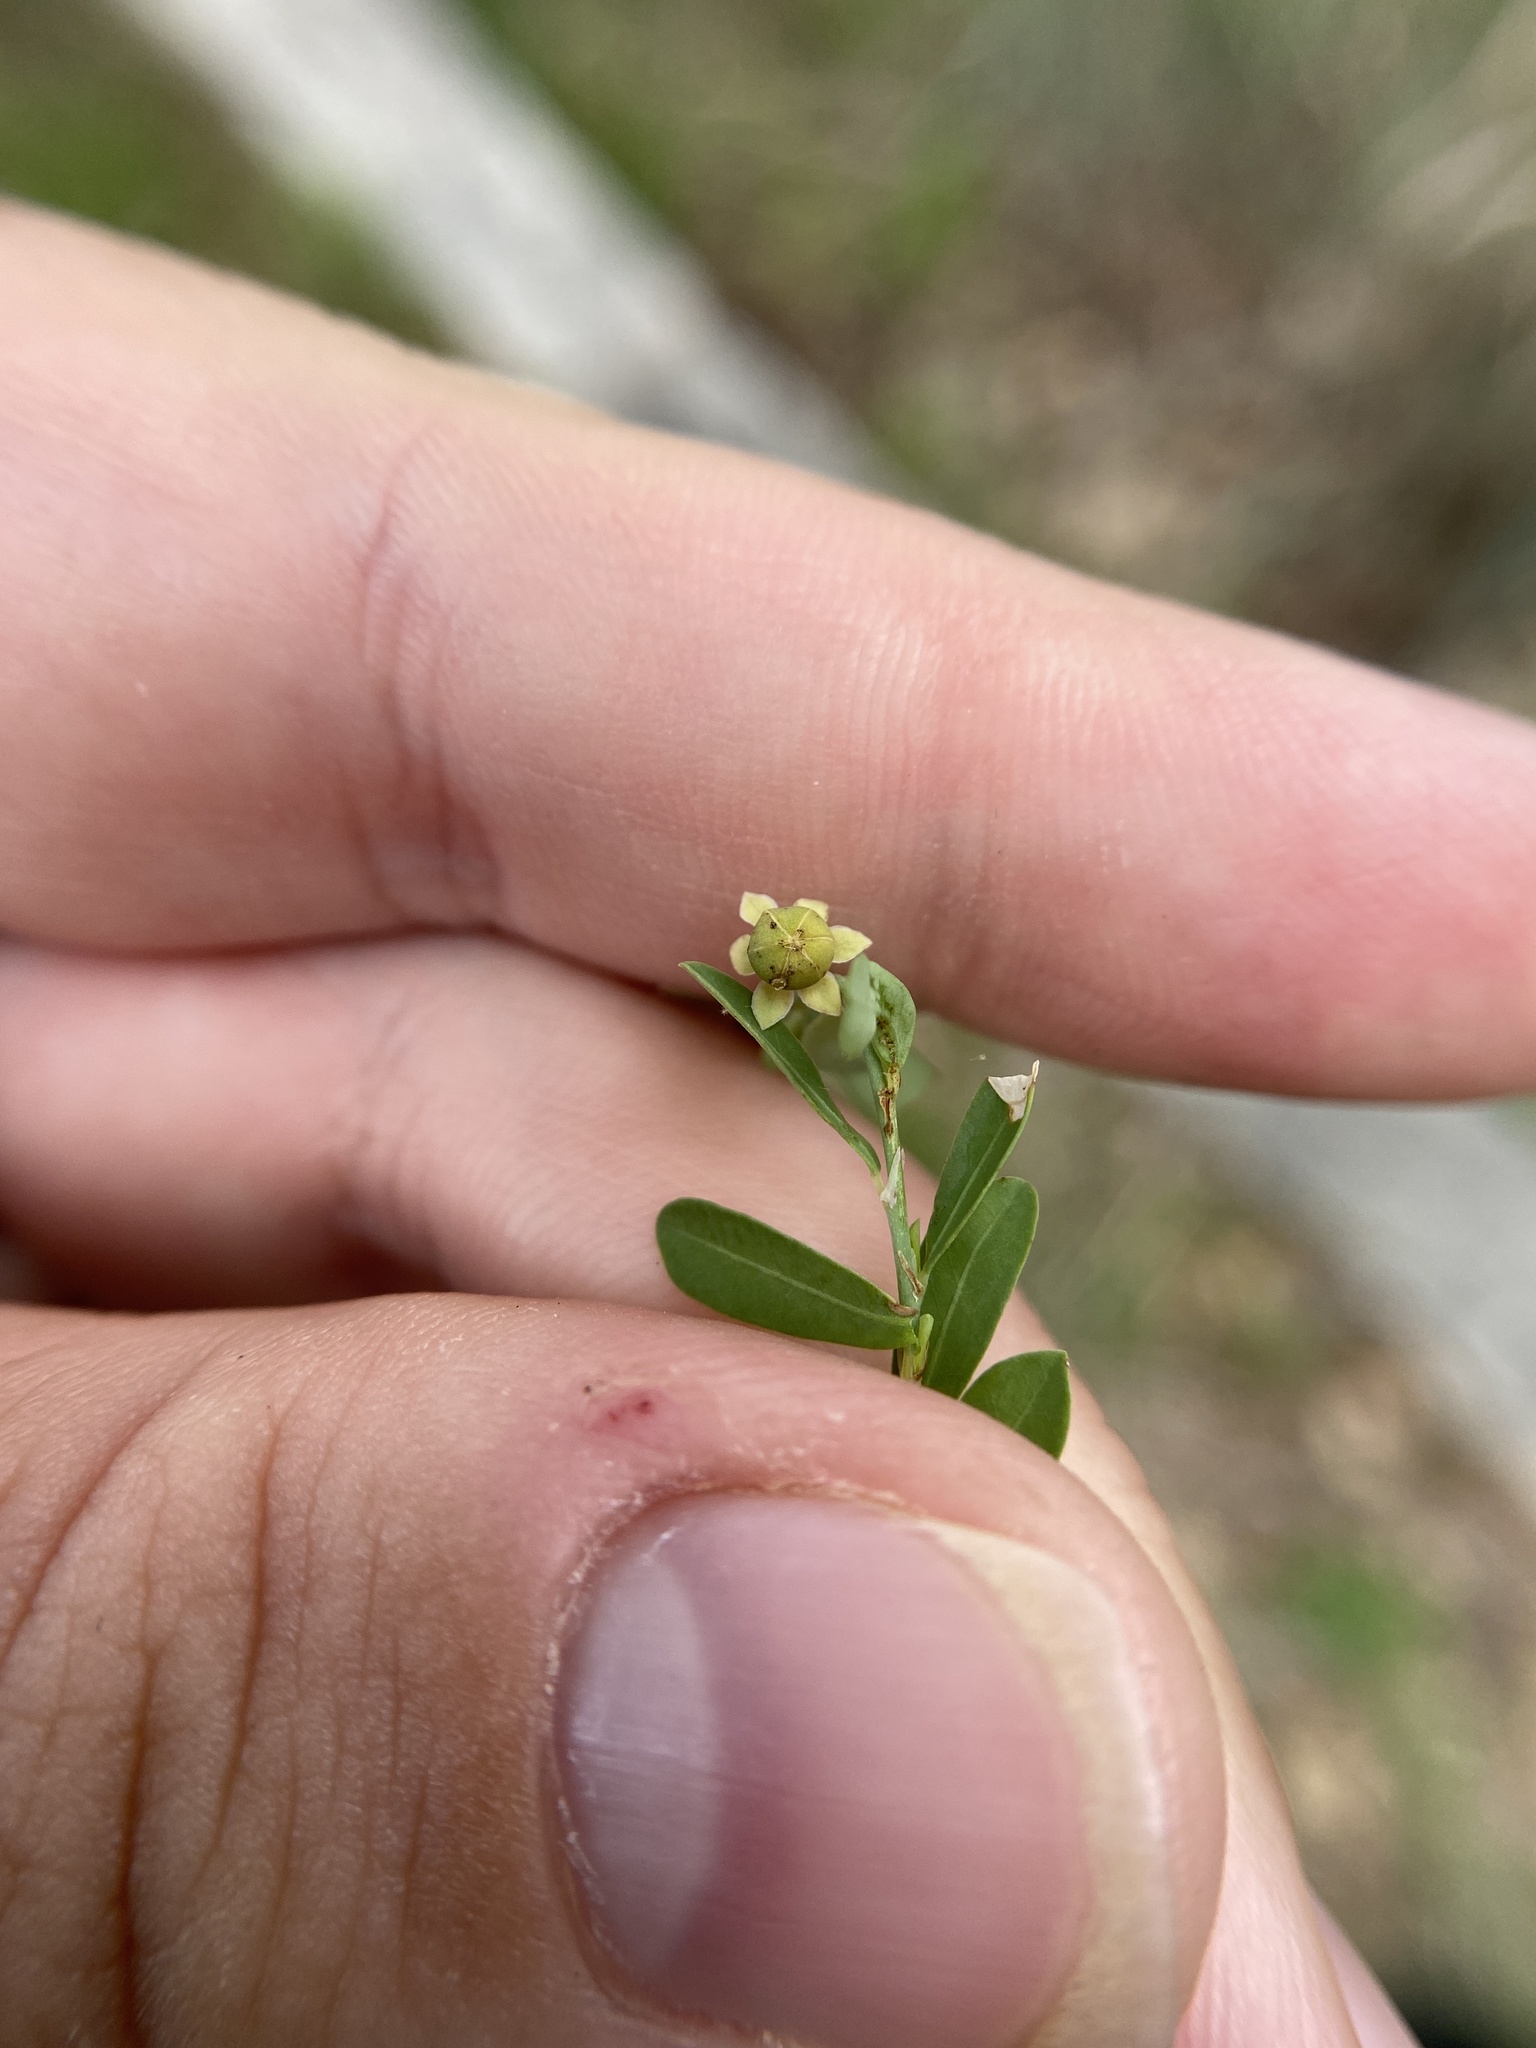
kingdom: Plantae
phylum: Tracheophyta
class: Magnoliopsida
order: Malpighiales
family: Phyllanthaceae
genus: Phyllanthus
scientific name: Phyllanthus polygonoides
